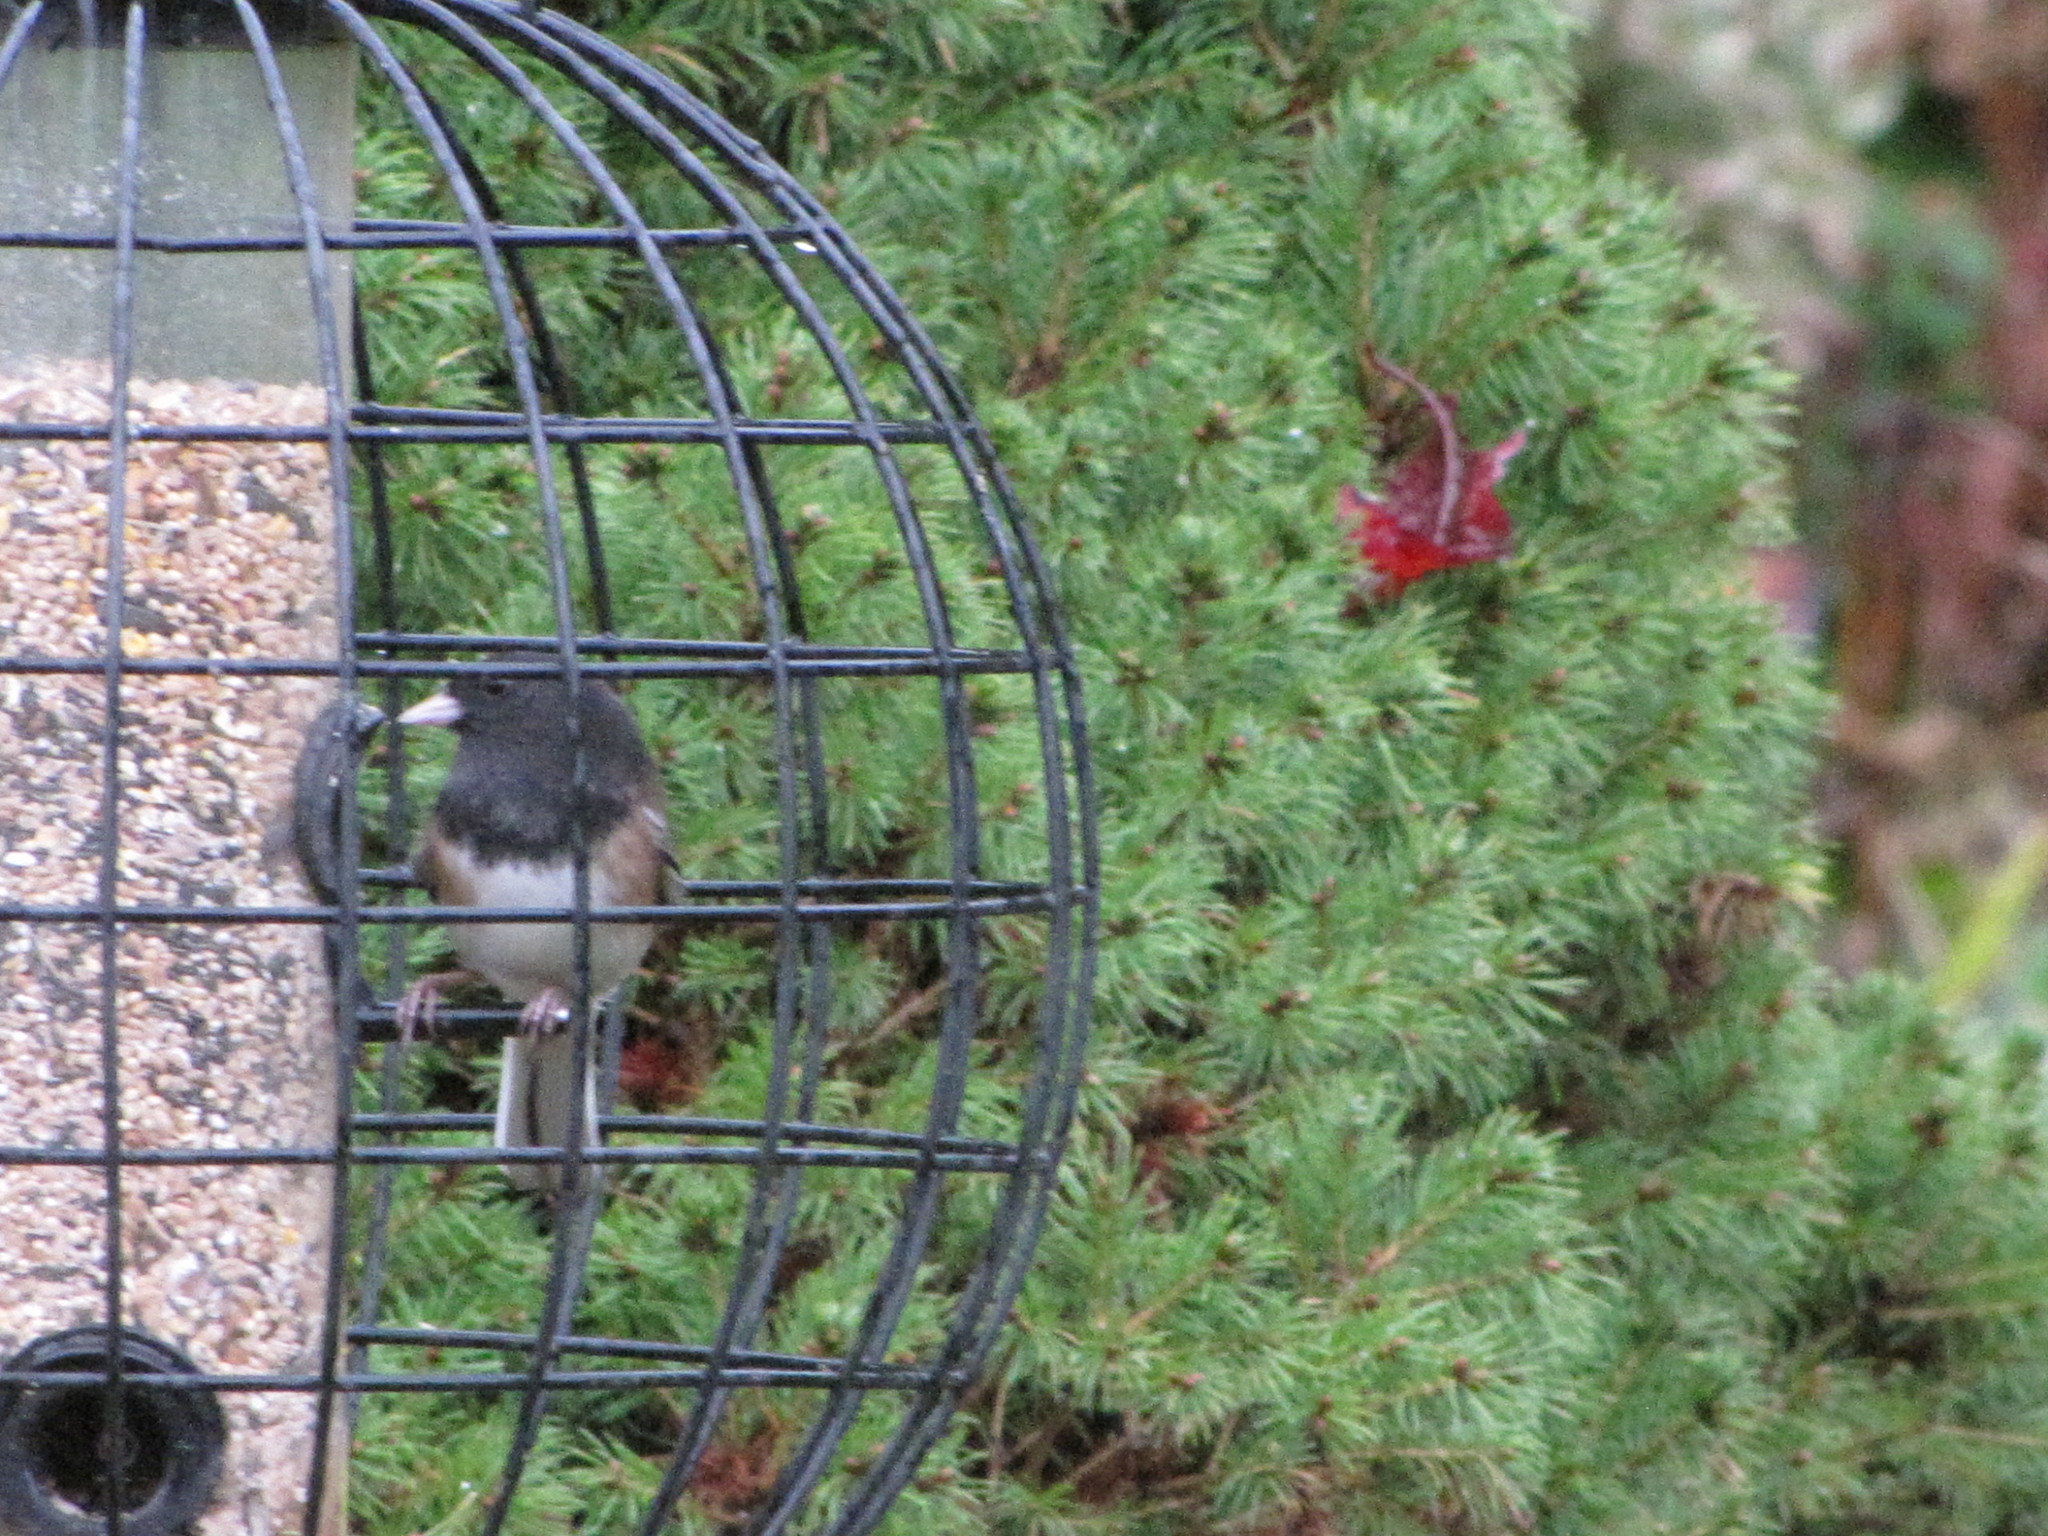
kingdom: Animalia
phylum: Chordata
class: Aves
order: Passeriformes
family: Passerellidae
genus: Junco
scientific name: Junco hyemalis
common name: Dark-eyed junco
